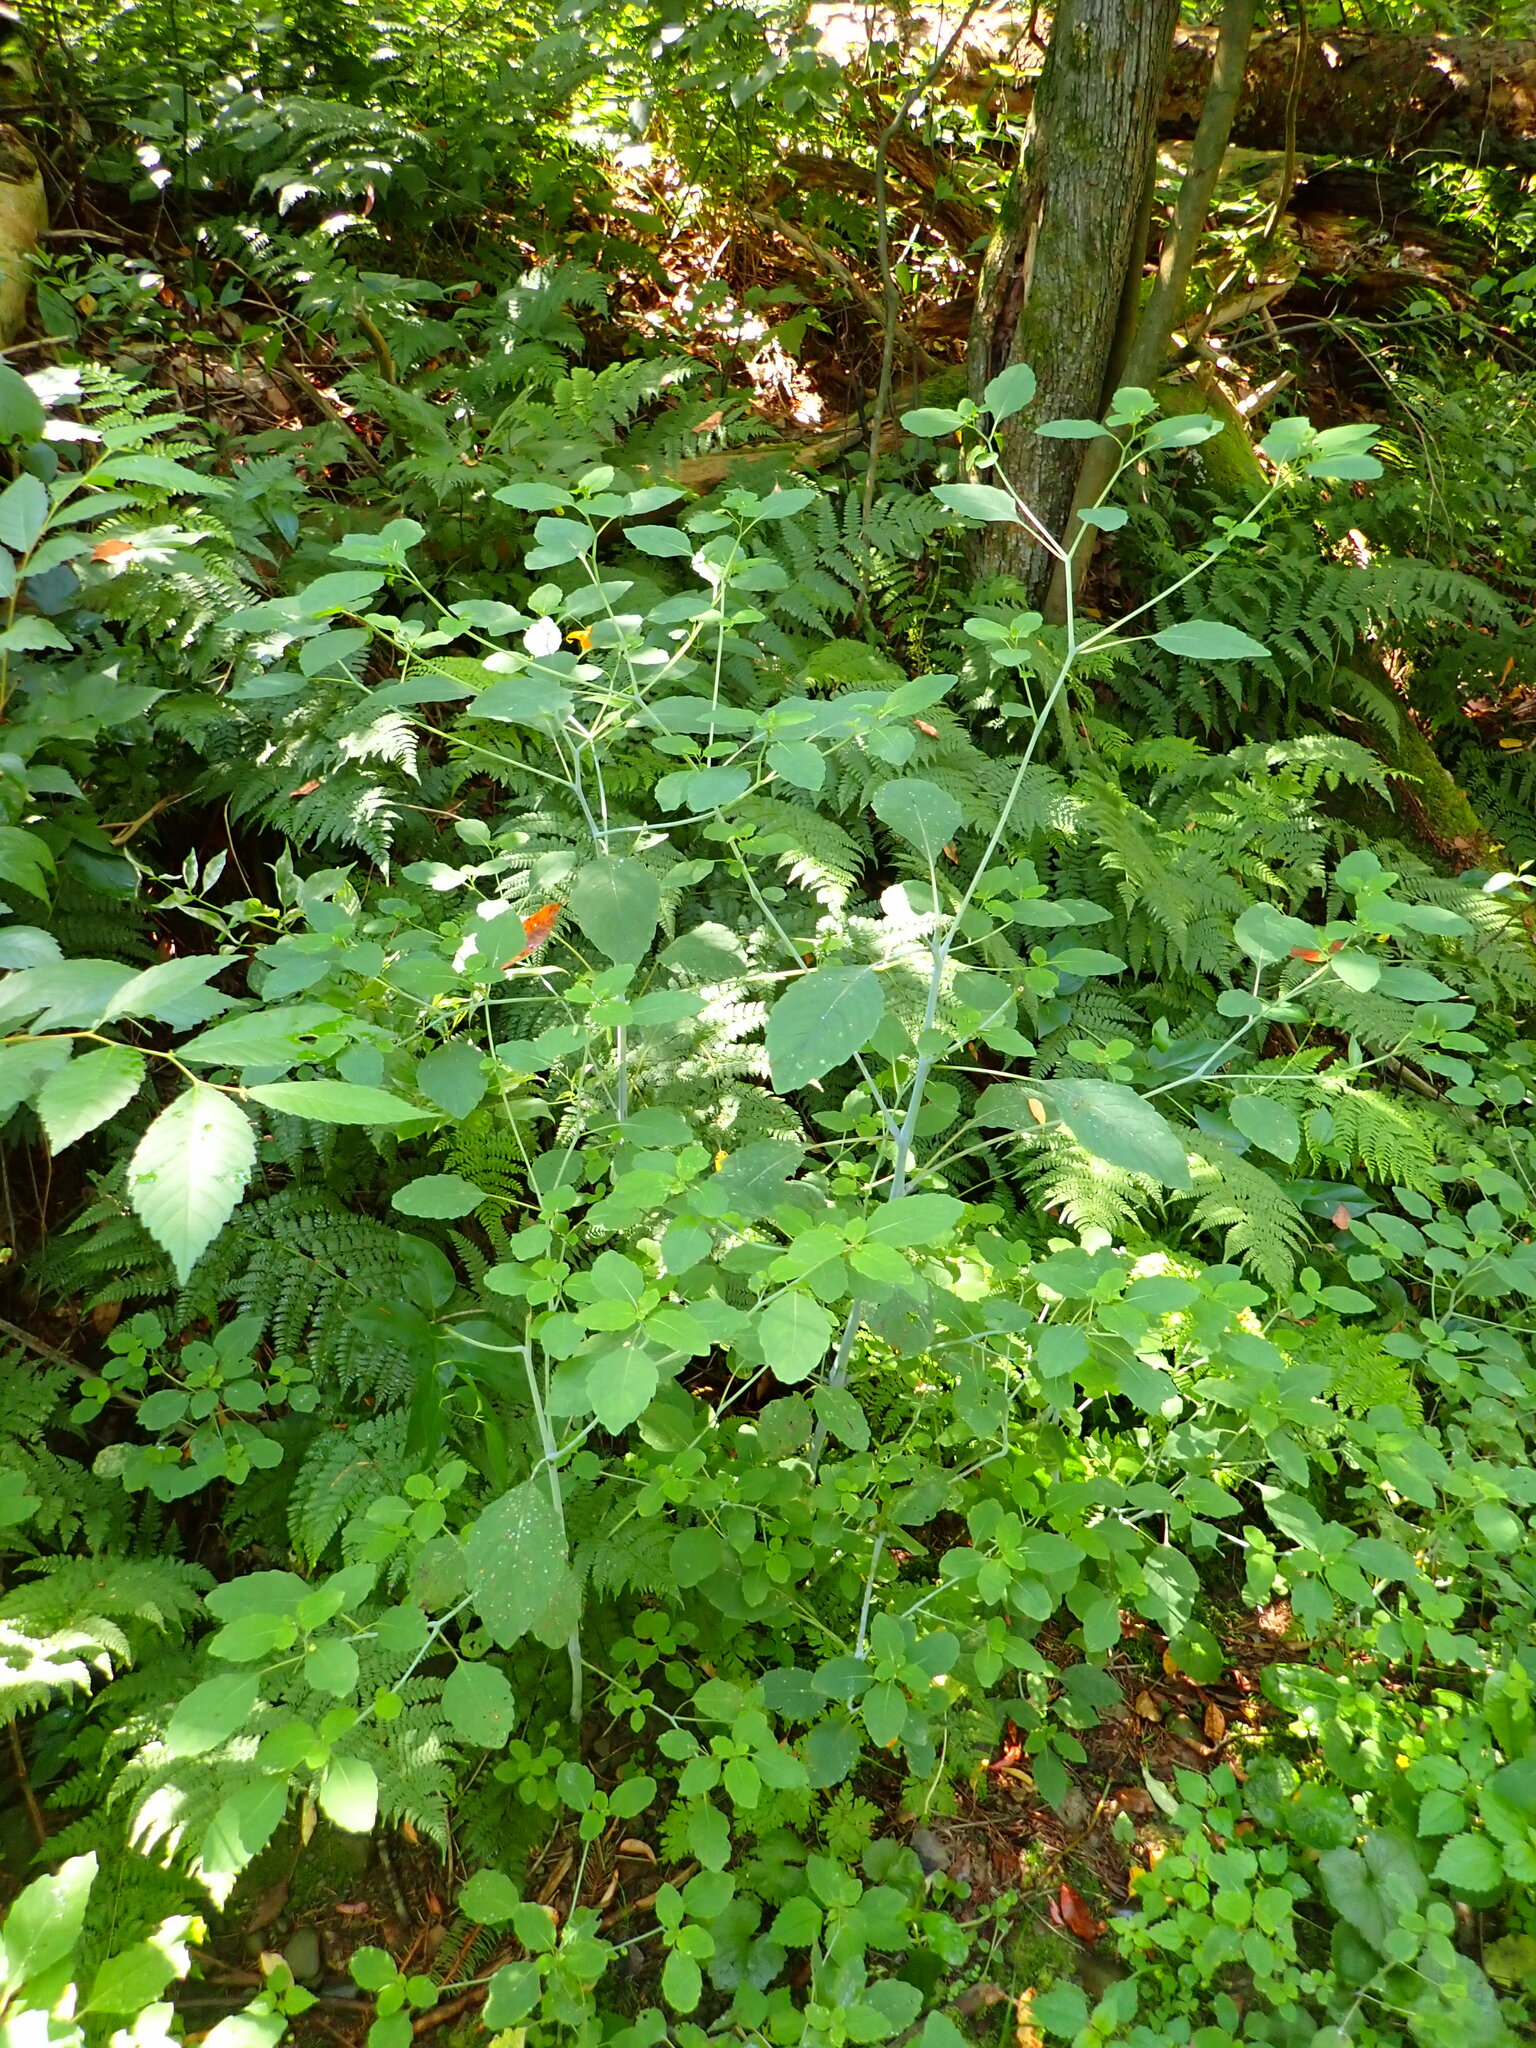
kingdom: Plantae
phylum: Tracheophyta
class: Magnoliopsida
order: Ericales
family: Balsaminaceae
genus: Impatiens
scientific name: Impatiens capensis
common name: Orange balsam
